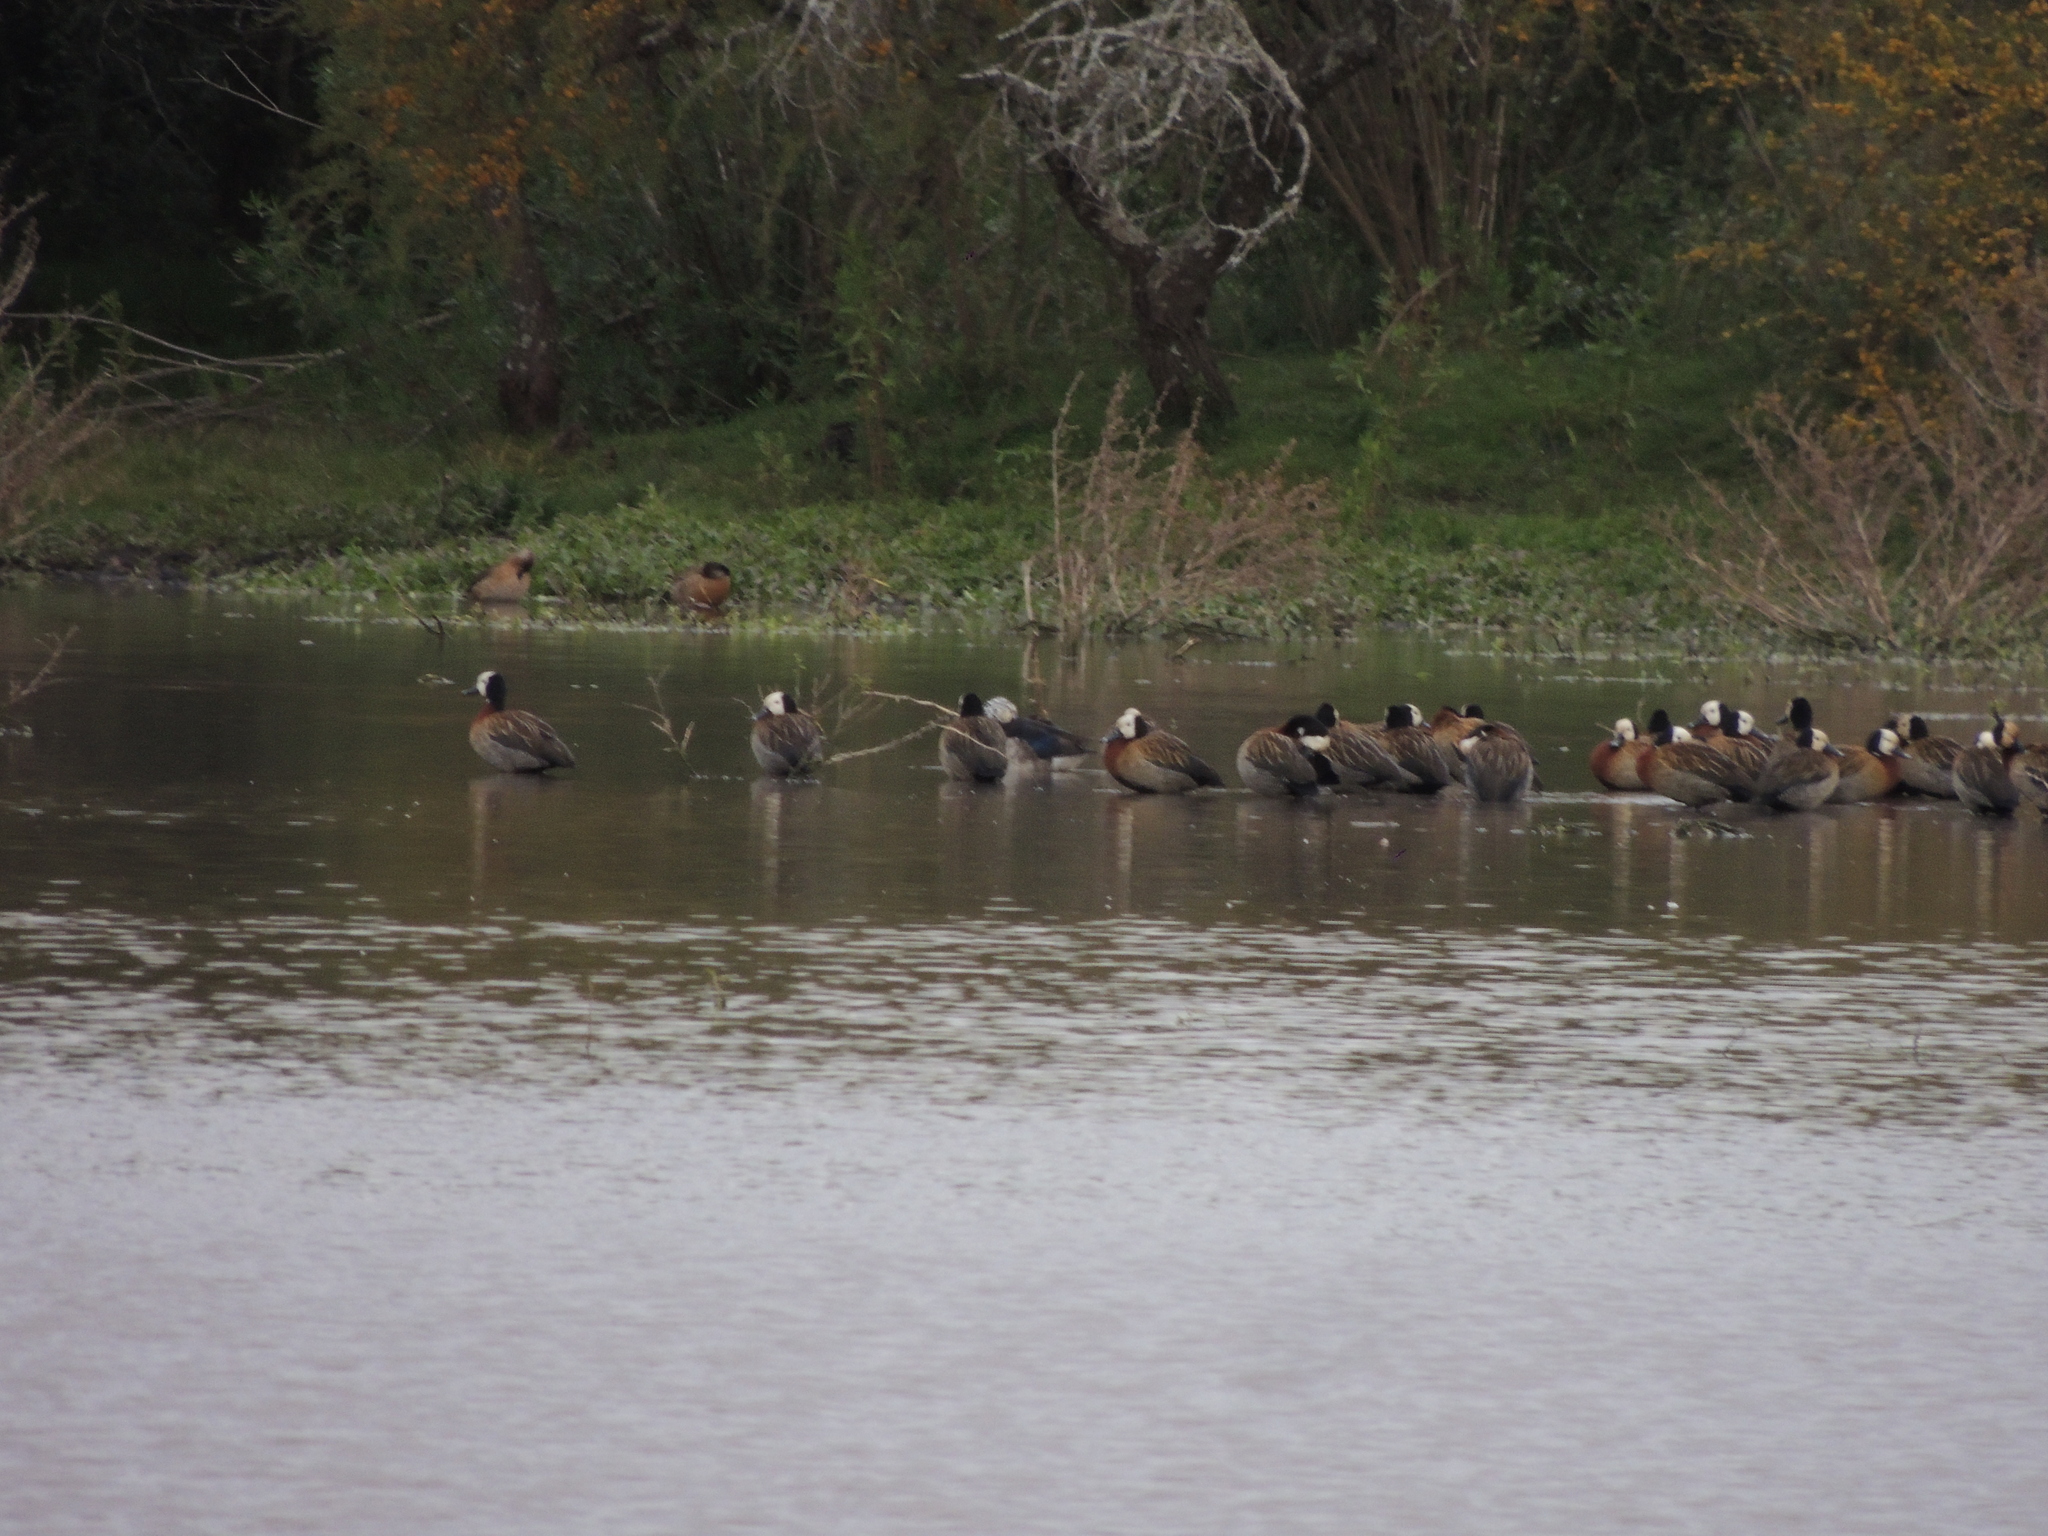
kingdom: Animalia
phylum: Chordata
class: Aves
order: Anseriformes
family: Anatidae
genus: Sarkidiornis
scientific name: Sarkidiornis sylvicola
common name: Comb duck
